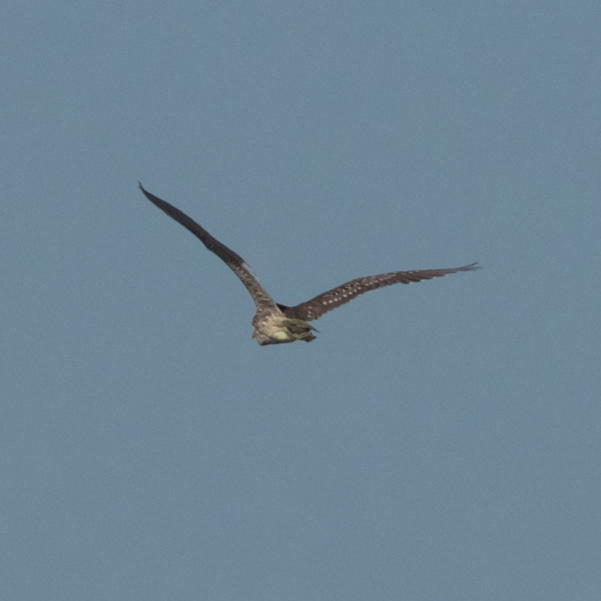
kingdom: Animalia
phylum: Chordata
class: Aves
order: Pelecaniformes
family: Ardeidae
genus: Nycticorax
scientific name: Nycticorax nycticorax
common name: Black-crowned night heron
